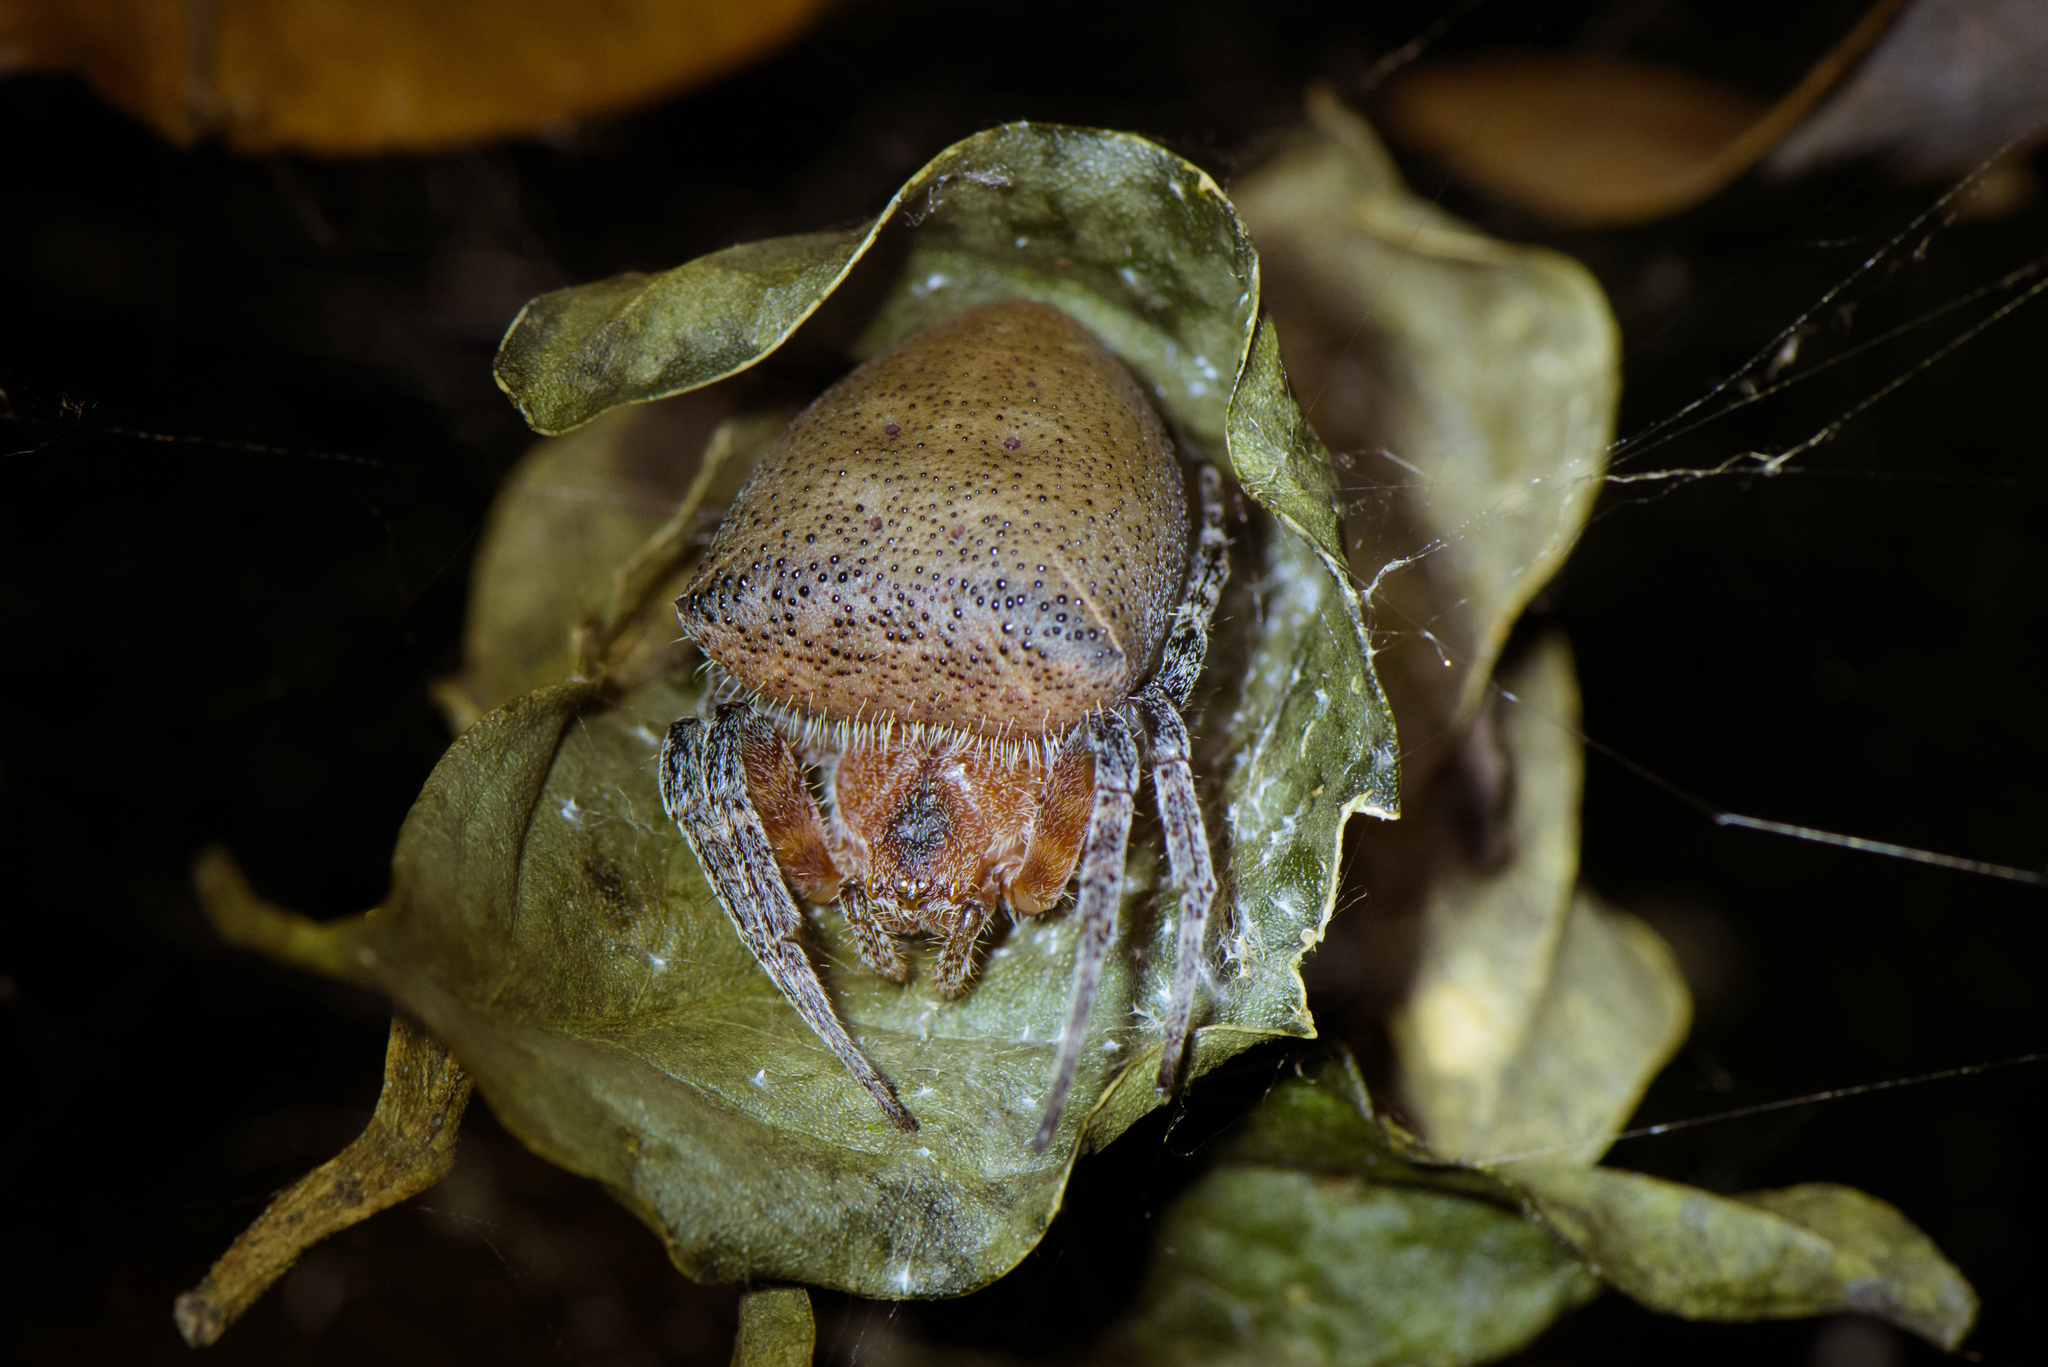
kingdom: Animalia
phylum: Arthropoda
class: Arachnida
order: Araneae
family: Araneidae
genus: Cyrtophora
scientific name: Cyrtophora unicolor
